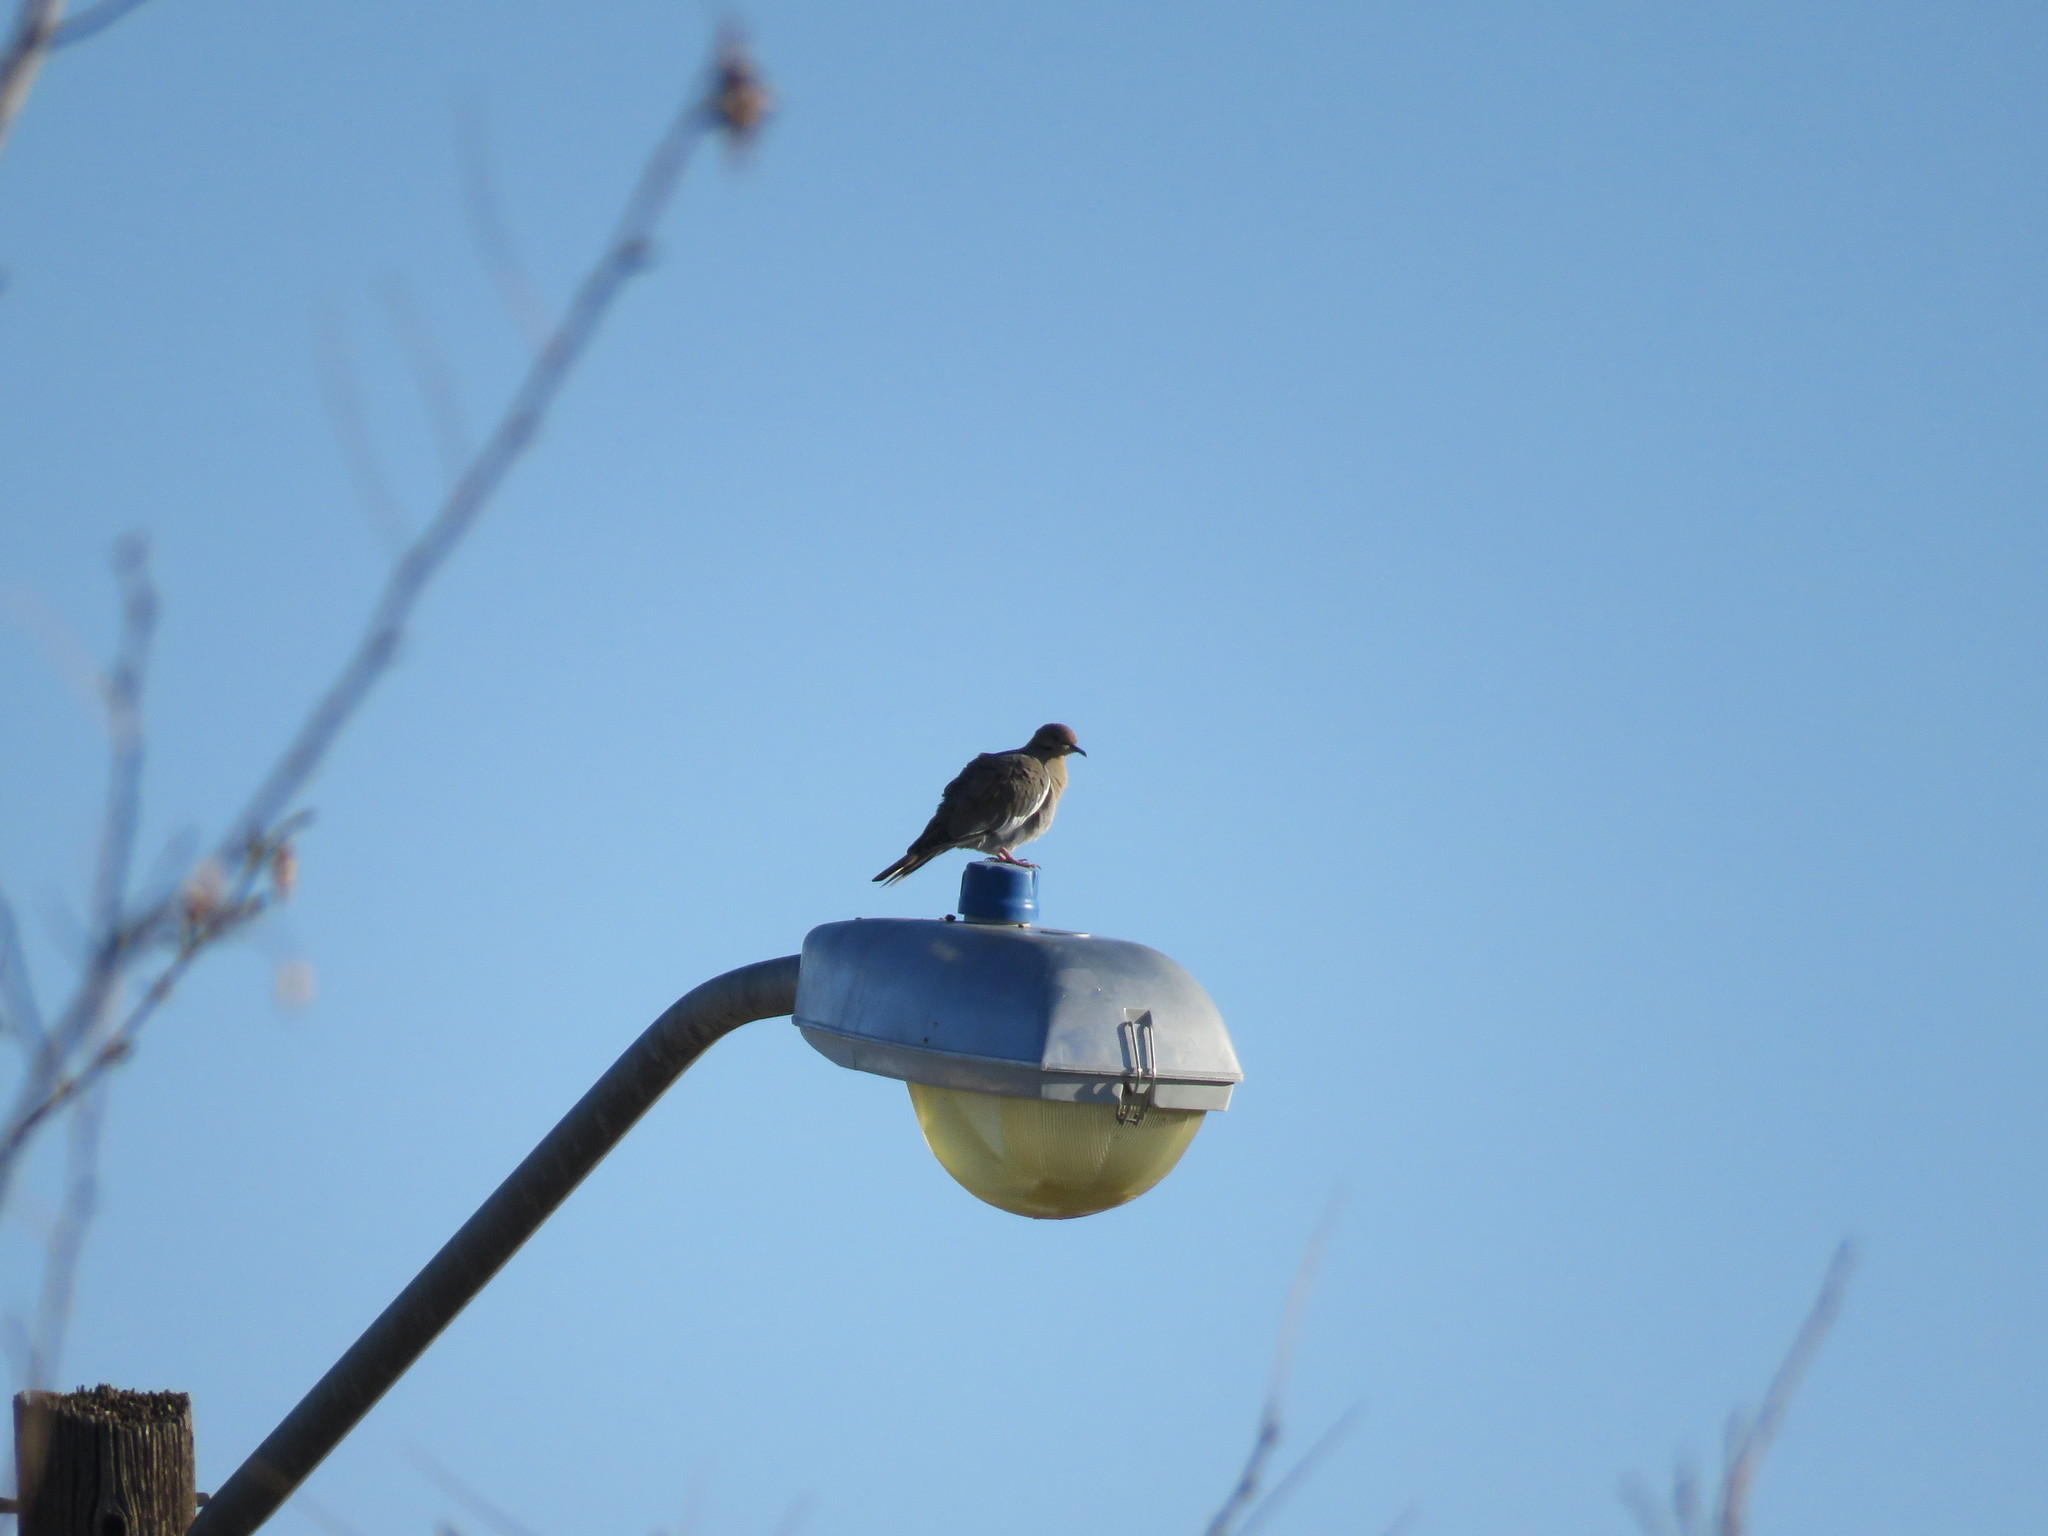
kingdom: Animalia
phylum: Chordata
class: Aves
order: Columbiformes
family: Columbidae
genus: Zenaida
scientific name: Zenaida asiatica
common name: White-winged dove
